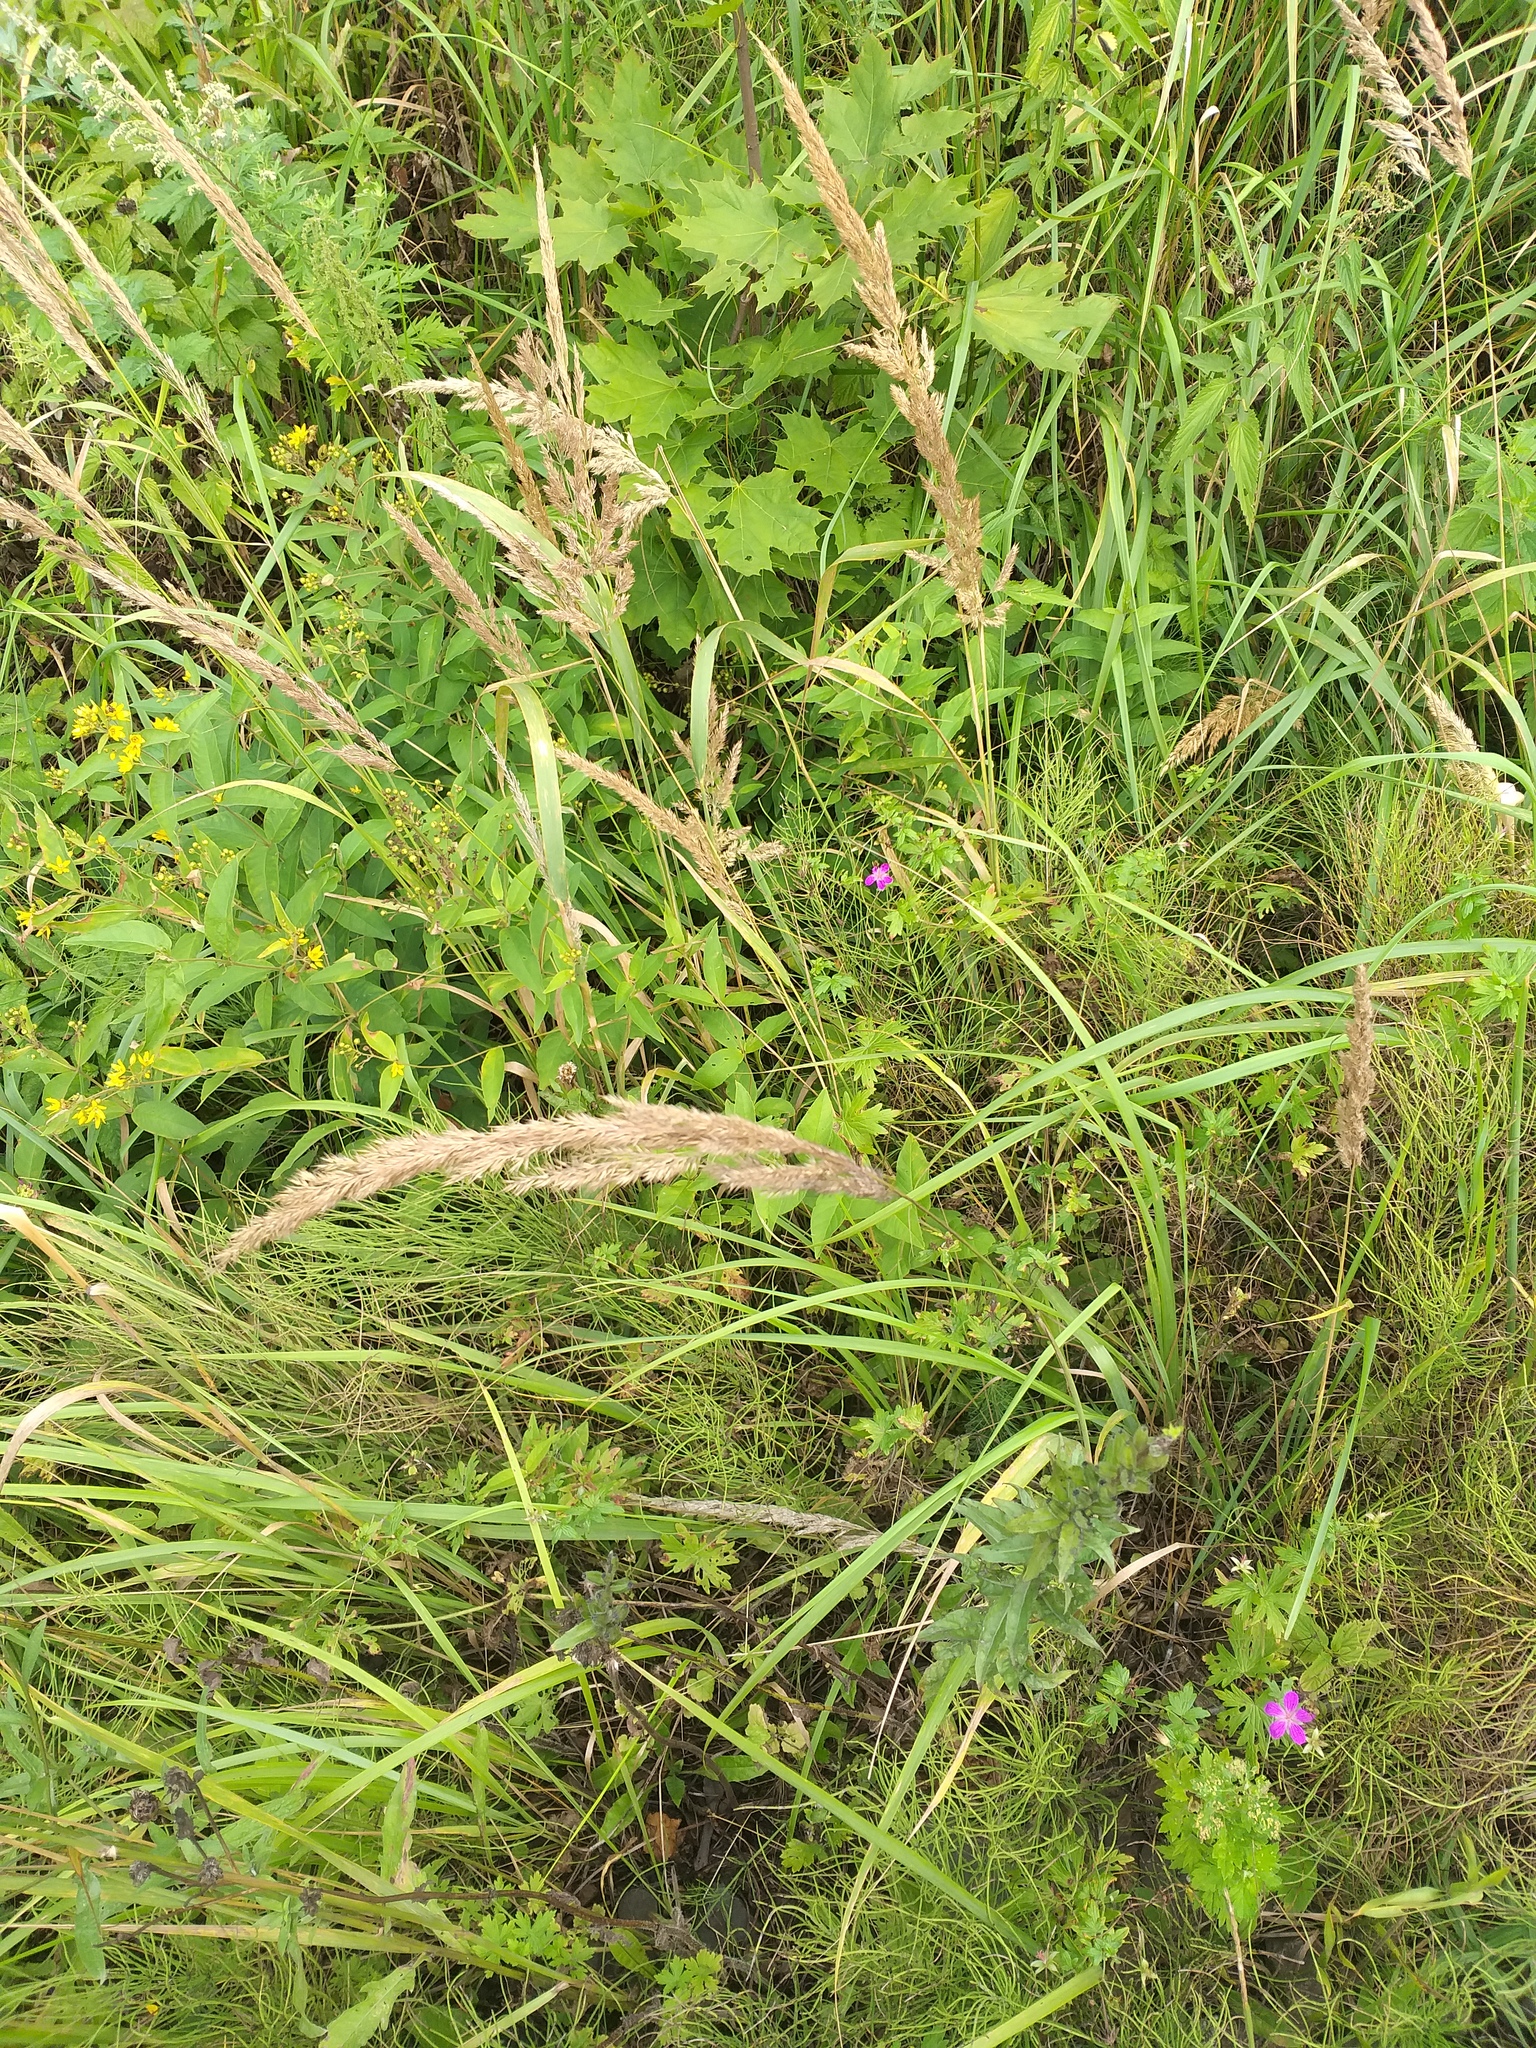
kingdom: Plantae
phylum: Tracheophyta
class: Liliopsida
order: Poales
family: Poaceae
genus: Calamagrostis
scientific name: Calamagrostis epigejos
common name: Wood small-reed
